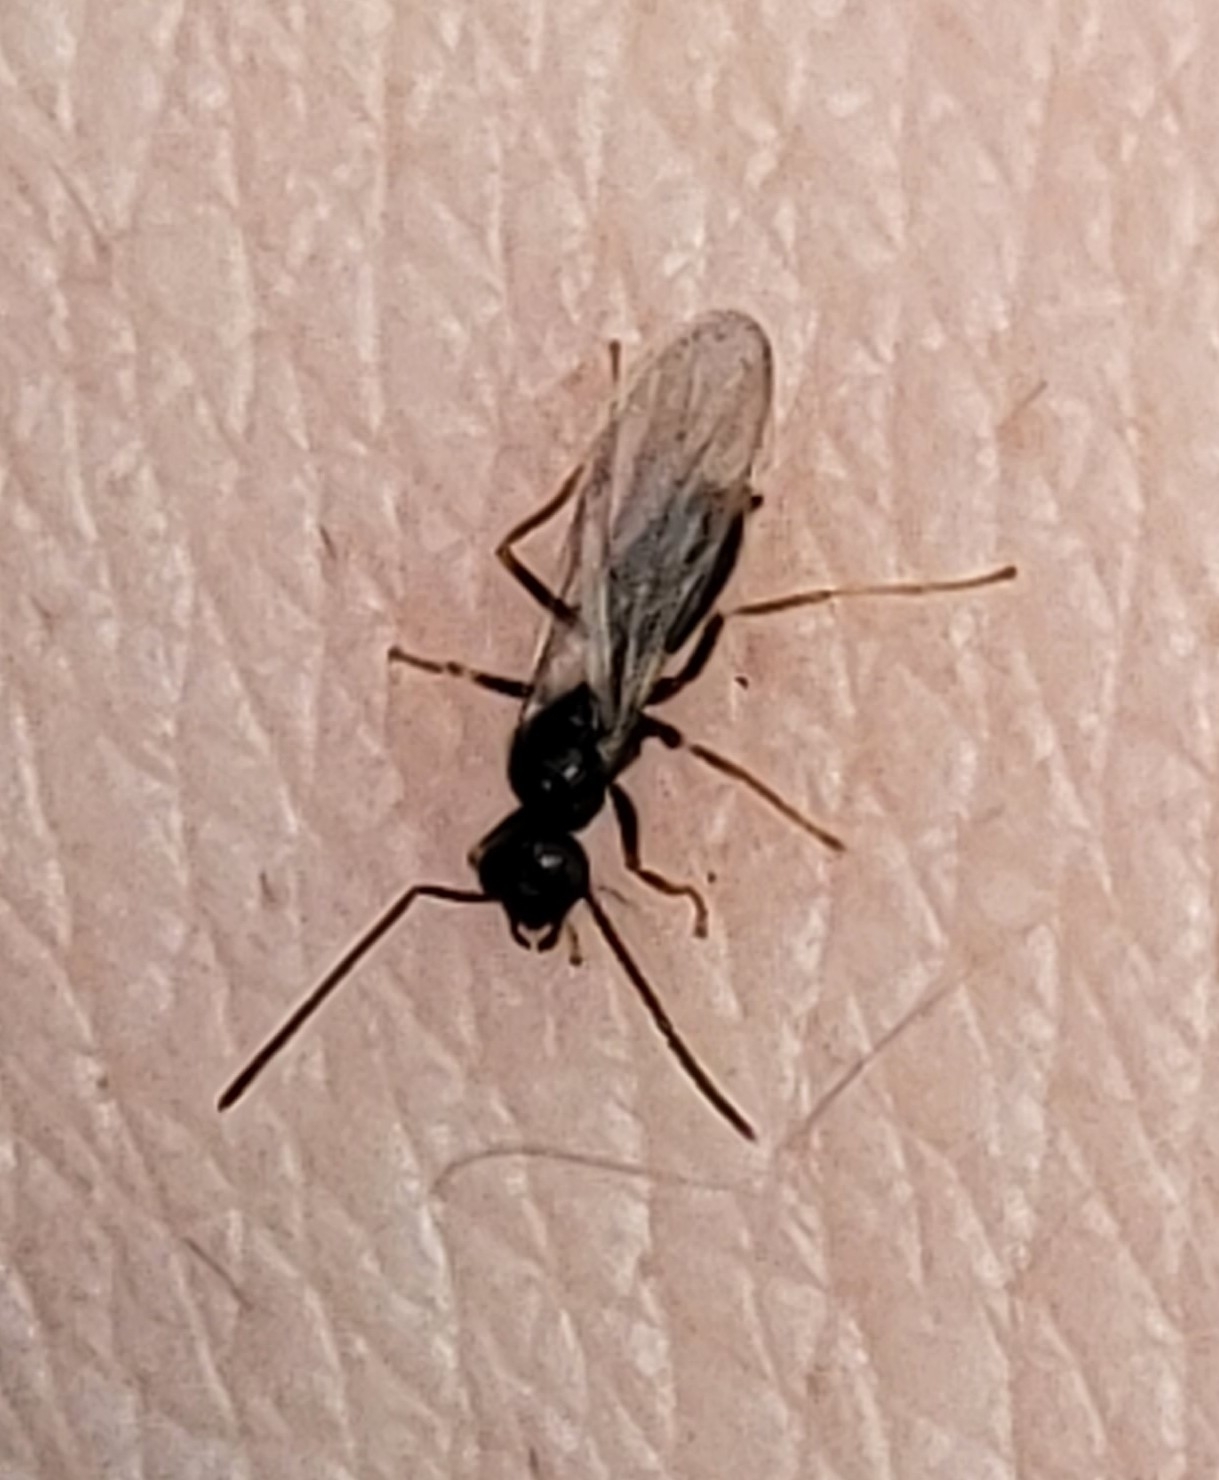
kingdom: Animalia
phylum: Arthropoda
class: Insecta
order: Hymenoptera
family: Formicidae
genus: Prenolepis
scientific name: Prenolepis imparis
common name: Small honey ant
